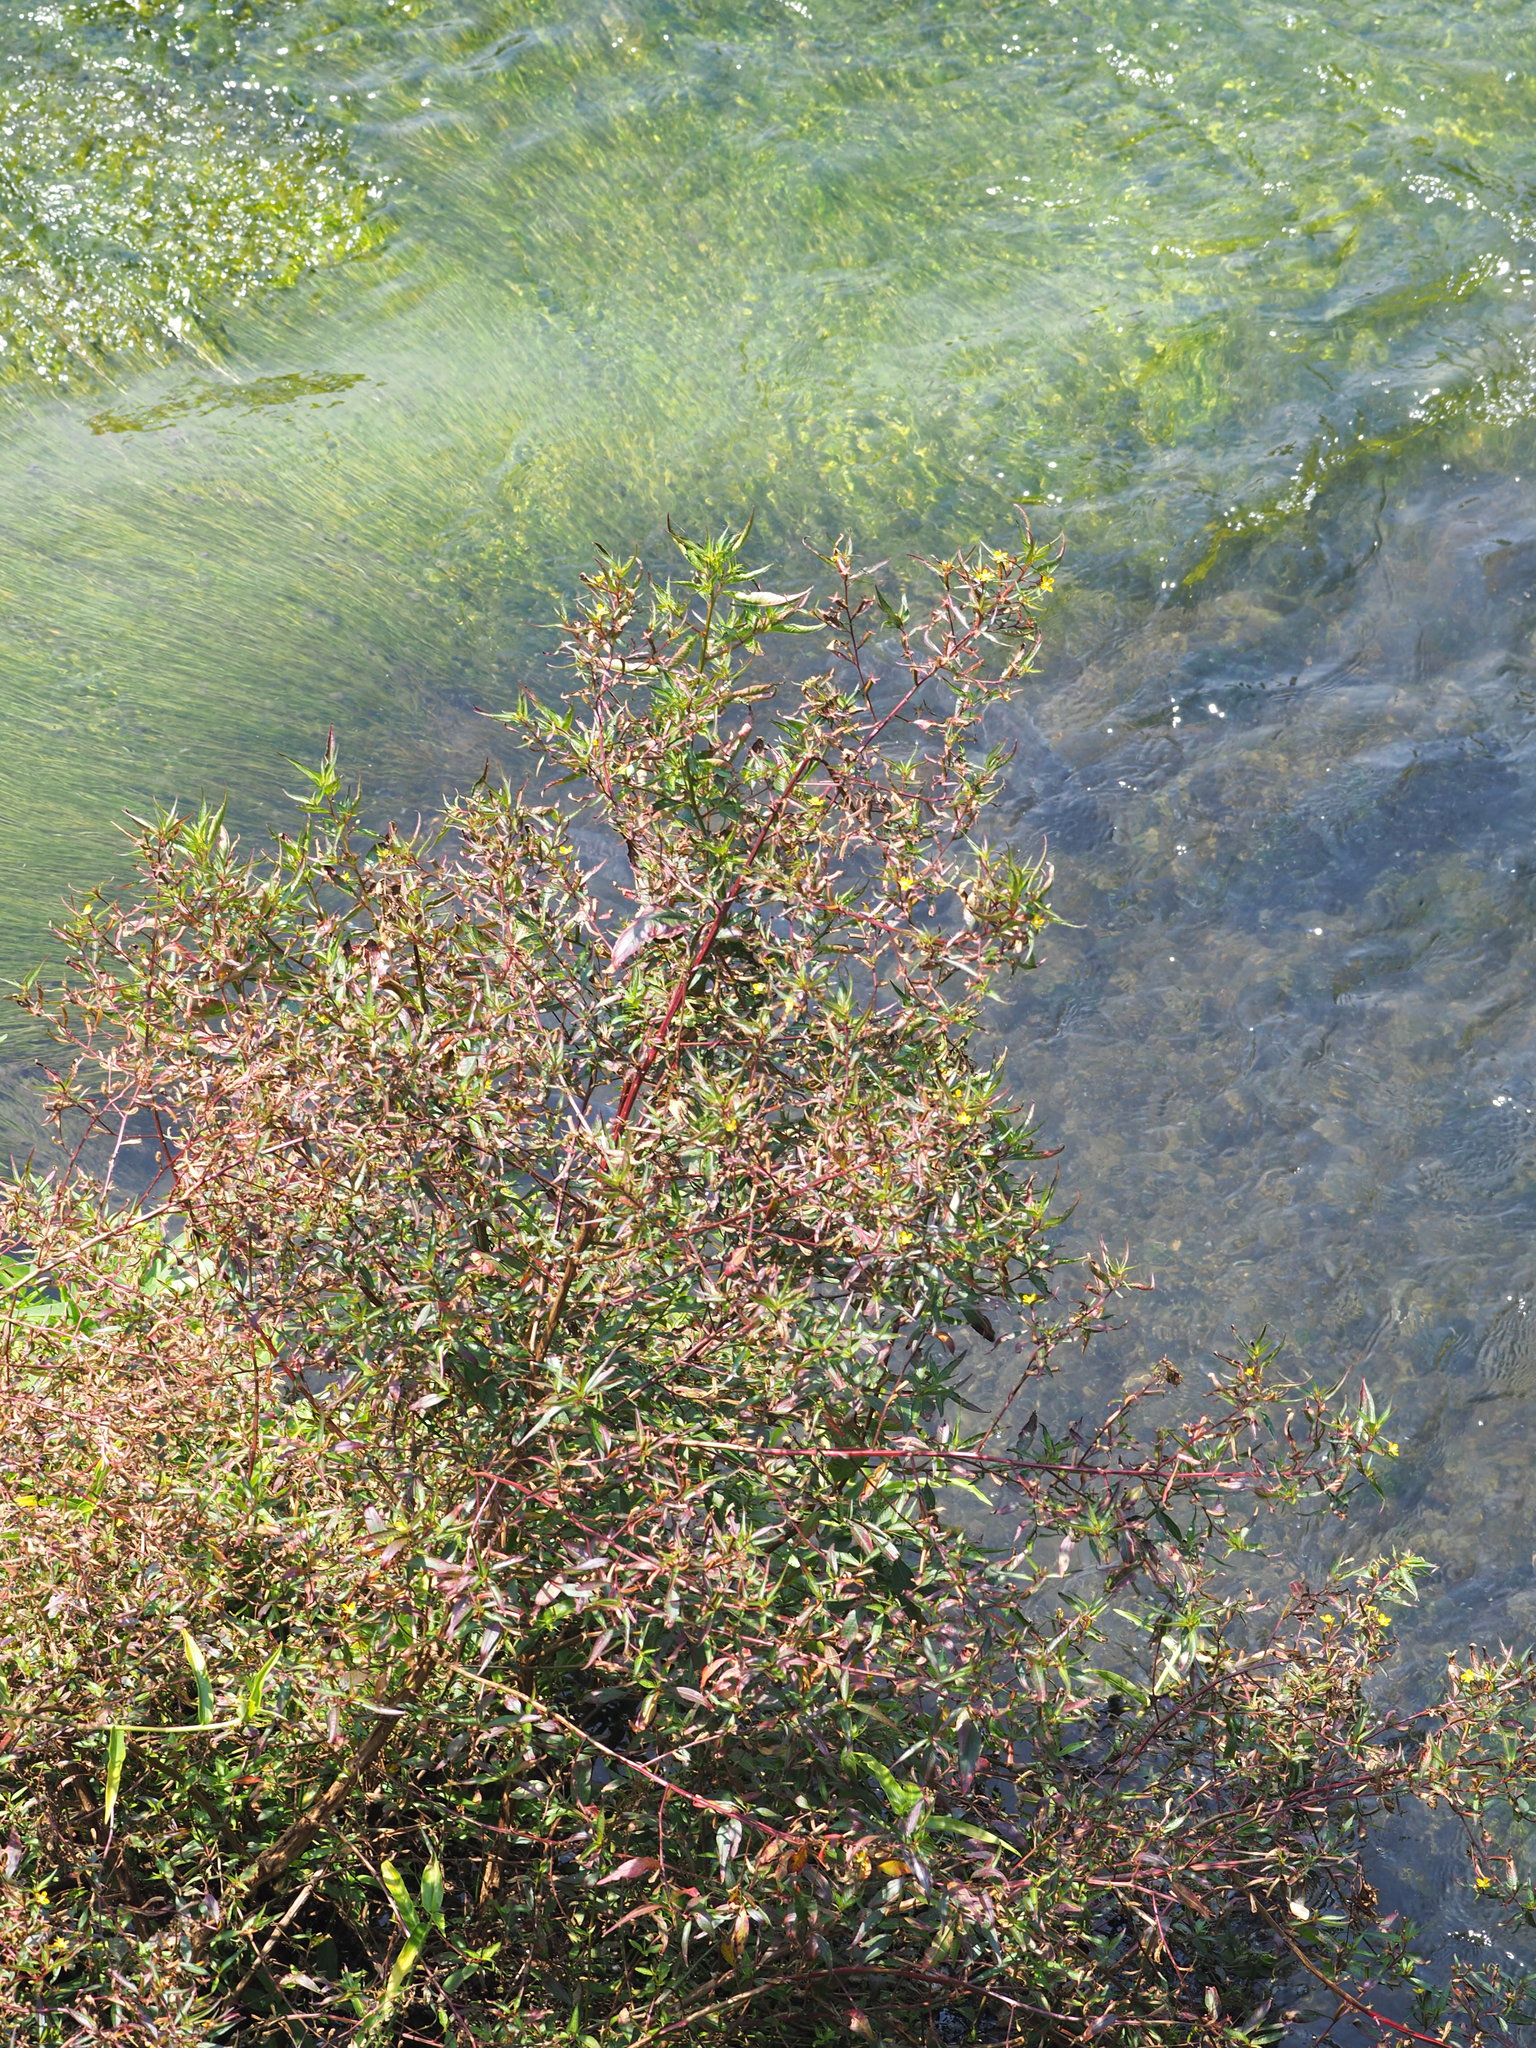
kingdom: Plantae
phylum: Tracheophyta
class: Magnoliopsida
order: Myrtales
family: Onagraceae
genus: Ludwigia
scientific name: Ludwigia hyssopifolia
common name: Linear leaf water primrose
